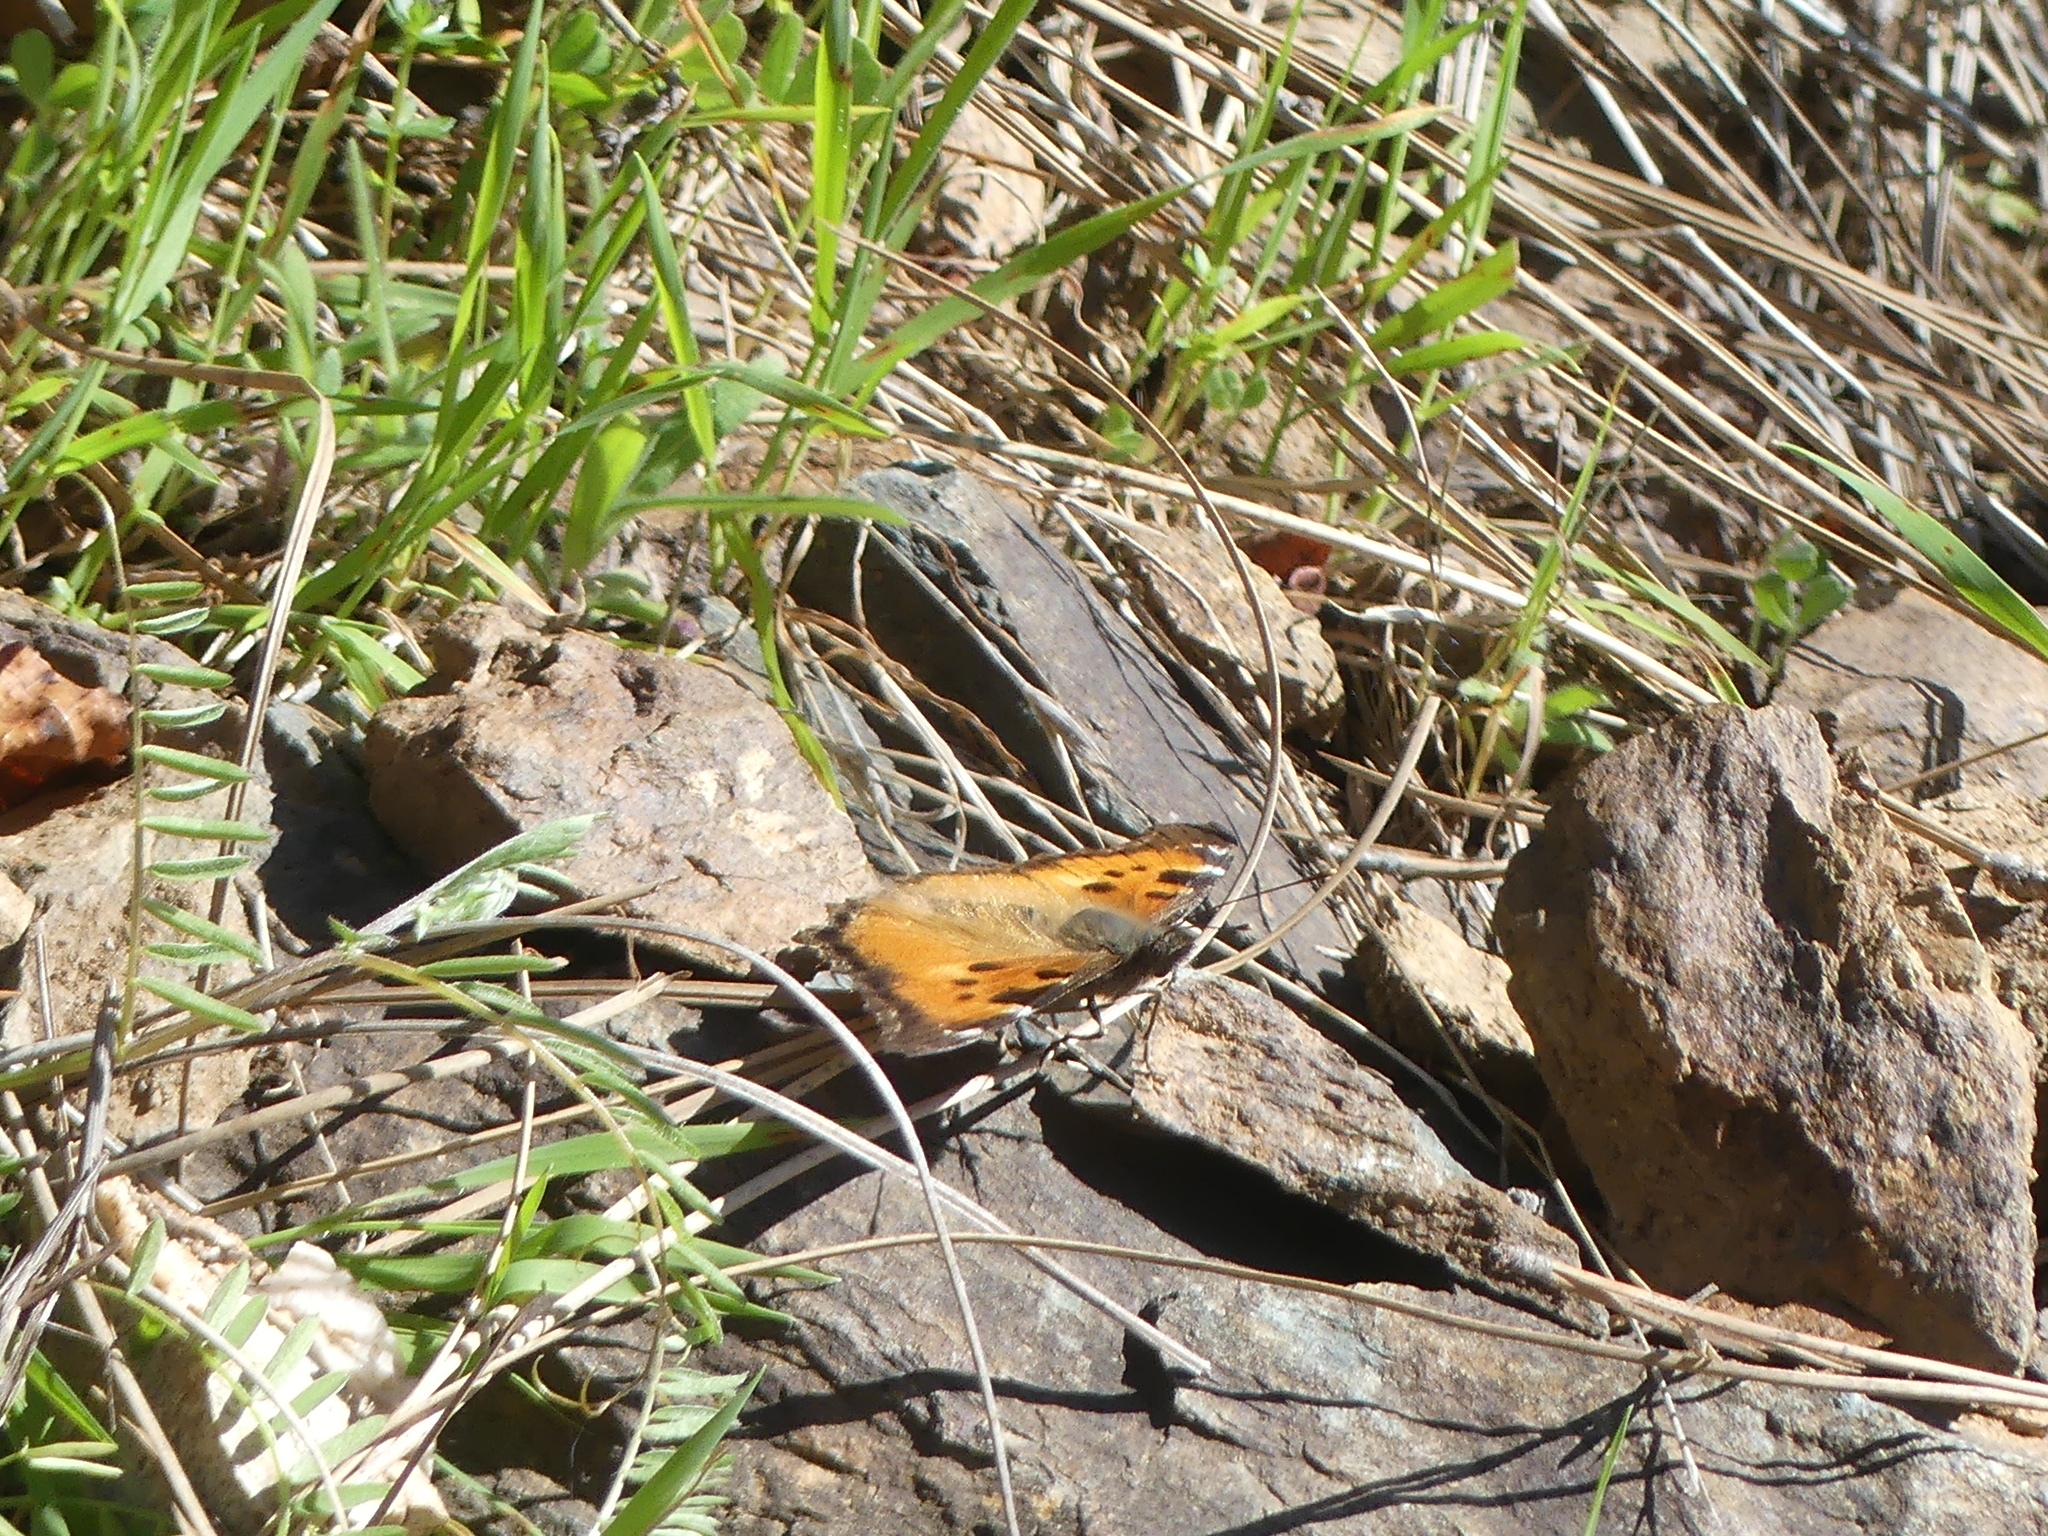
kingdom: Animalia
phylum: Arthropoda
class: Insecta
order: Lepidoptera
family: Nymphalidae
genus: Nymphalis
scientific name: Nymphalis californica
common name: California tortoiseshell
